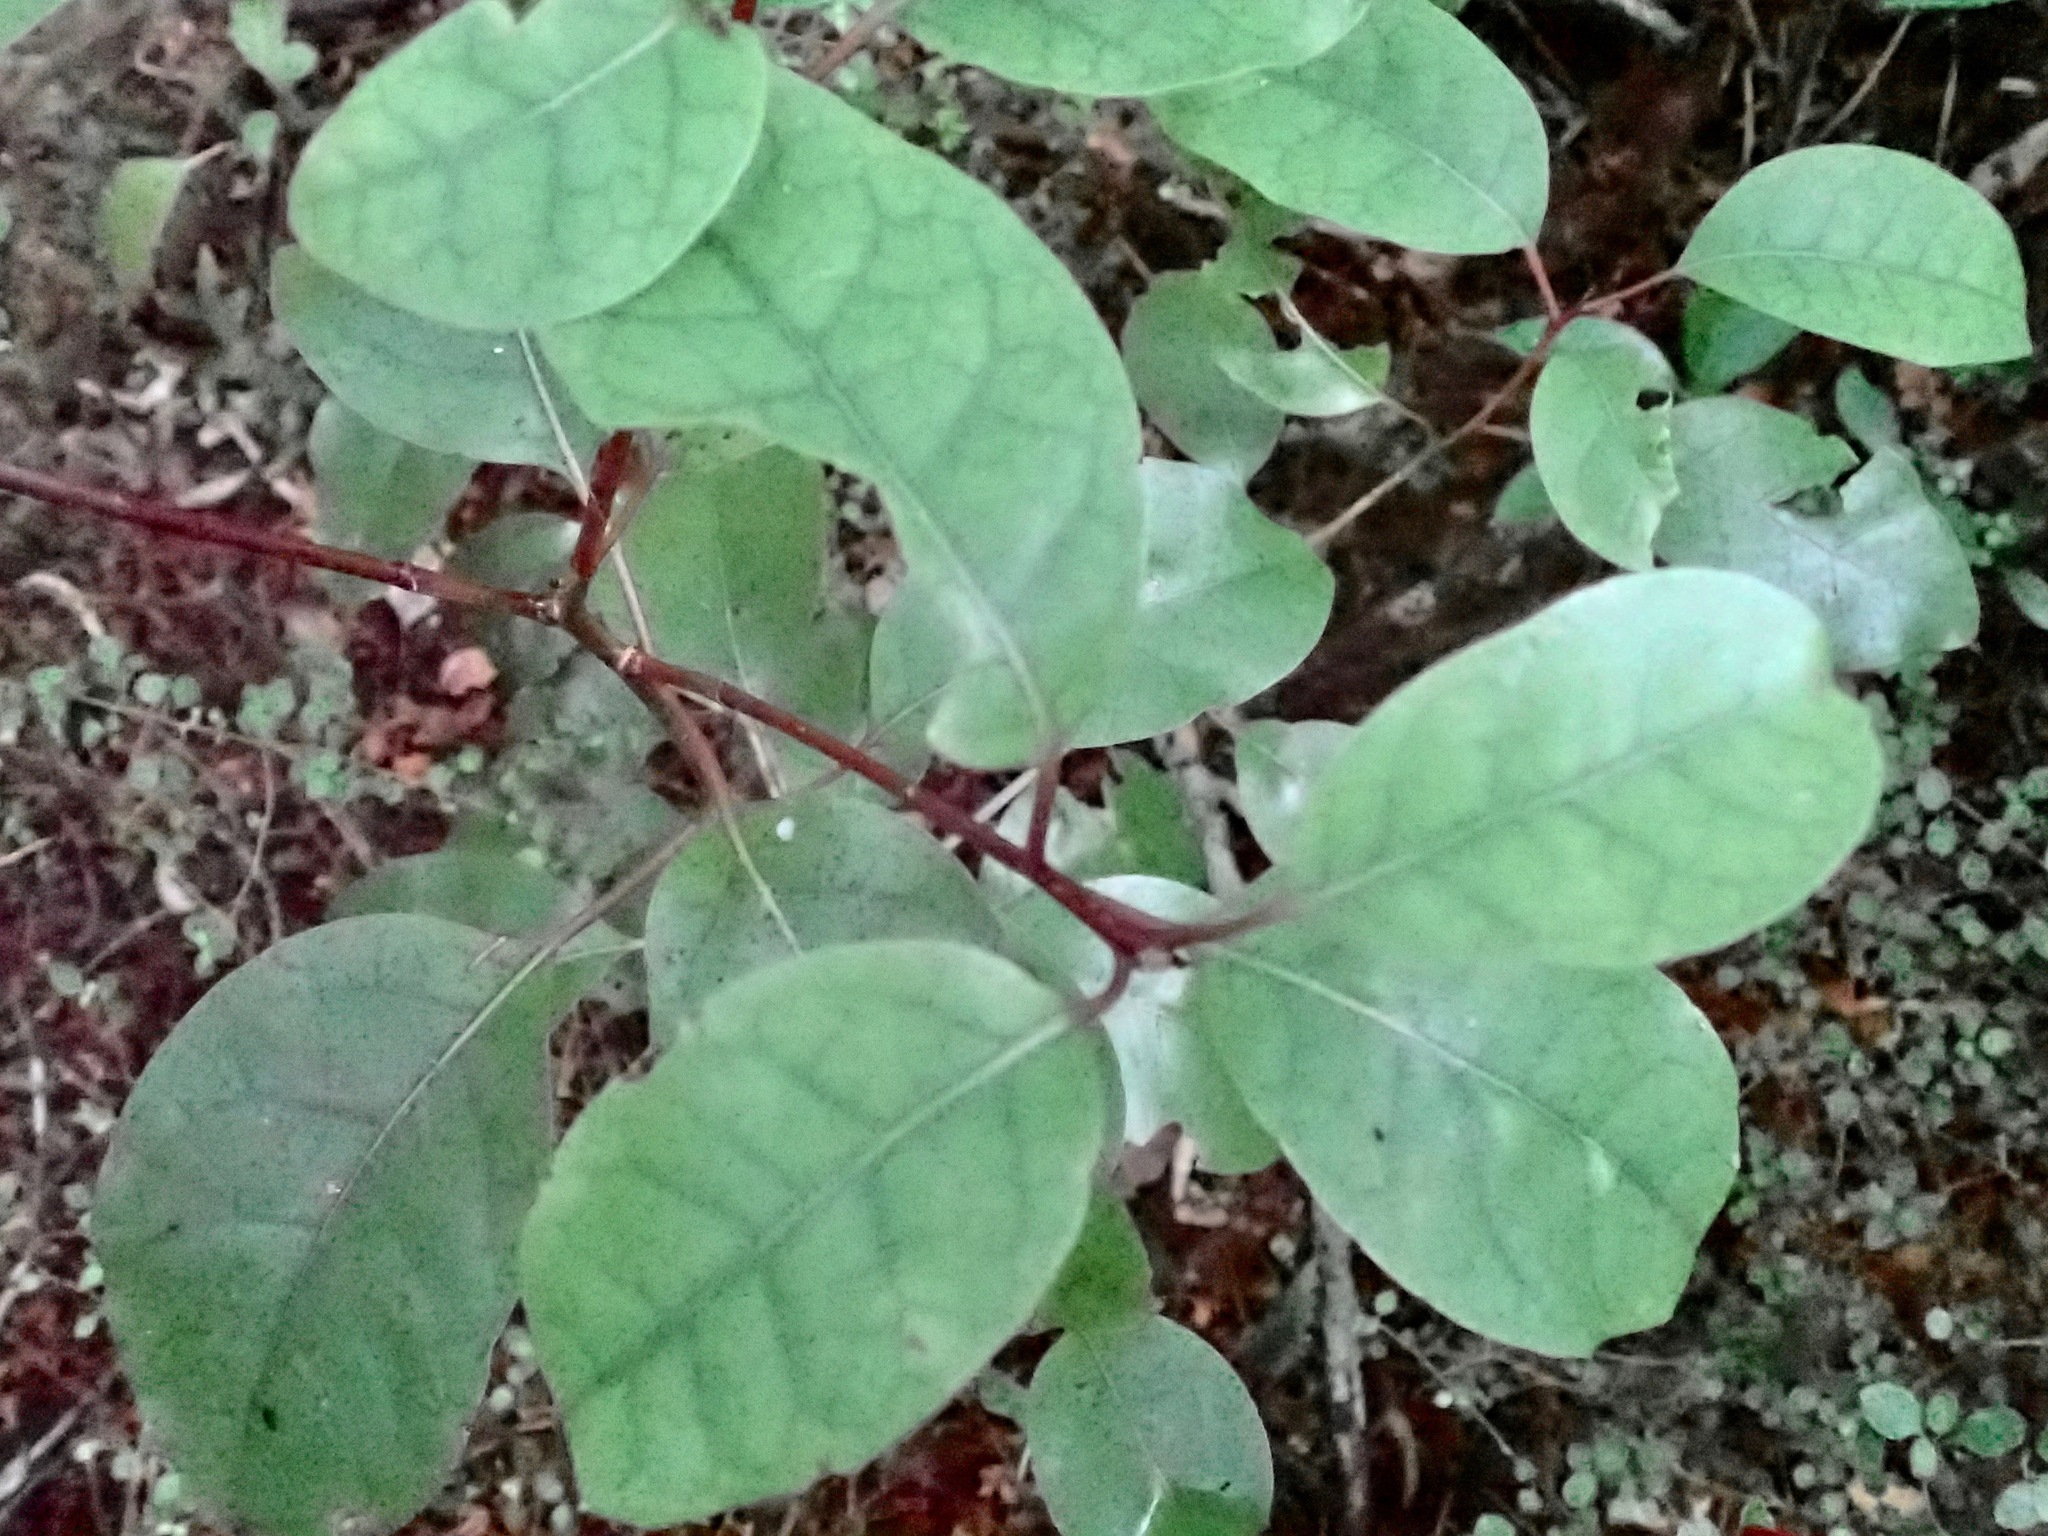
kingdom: Plantae
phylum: Tracheophyta
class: Magnoliopsida
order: Laurales
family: Lauraceae
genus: Litsea
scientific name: Litsea calicaris
